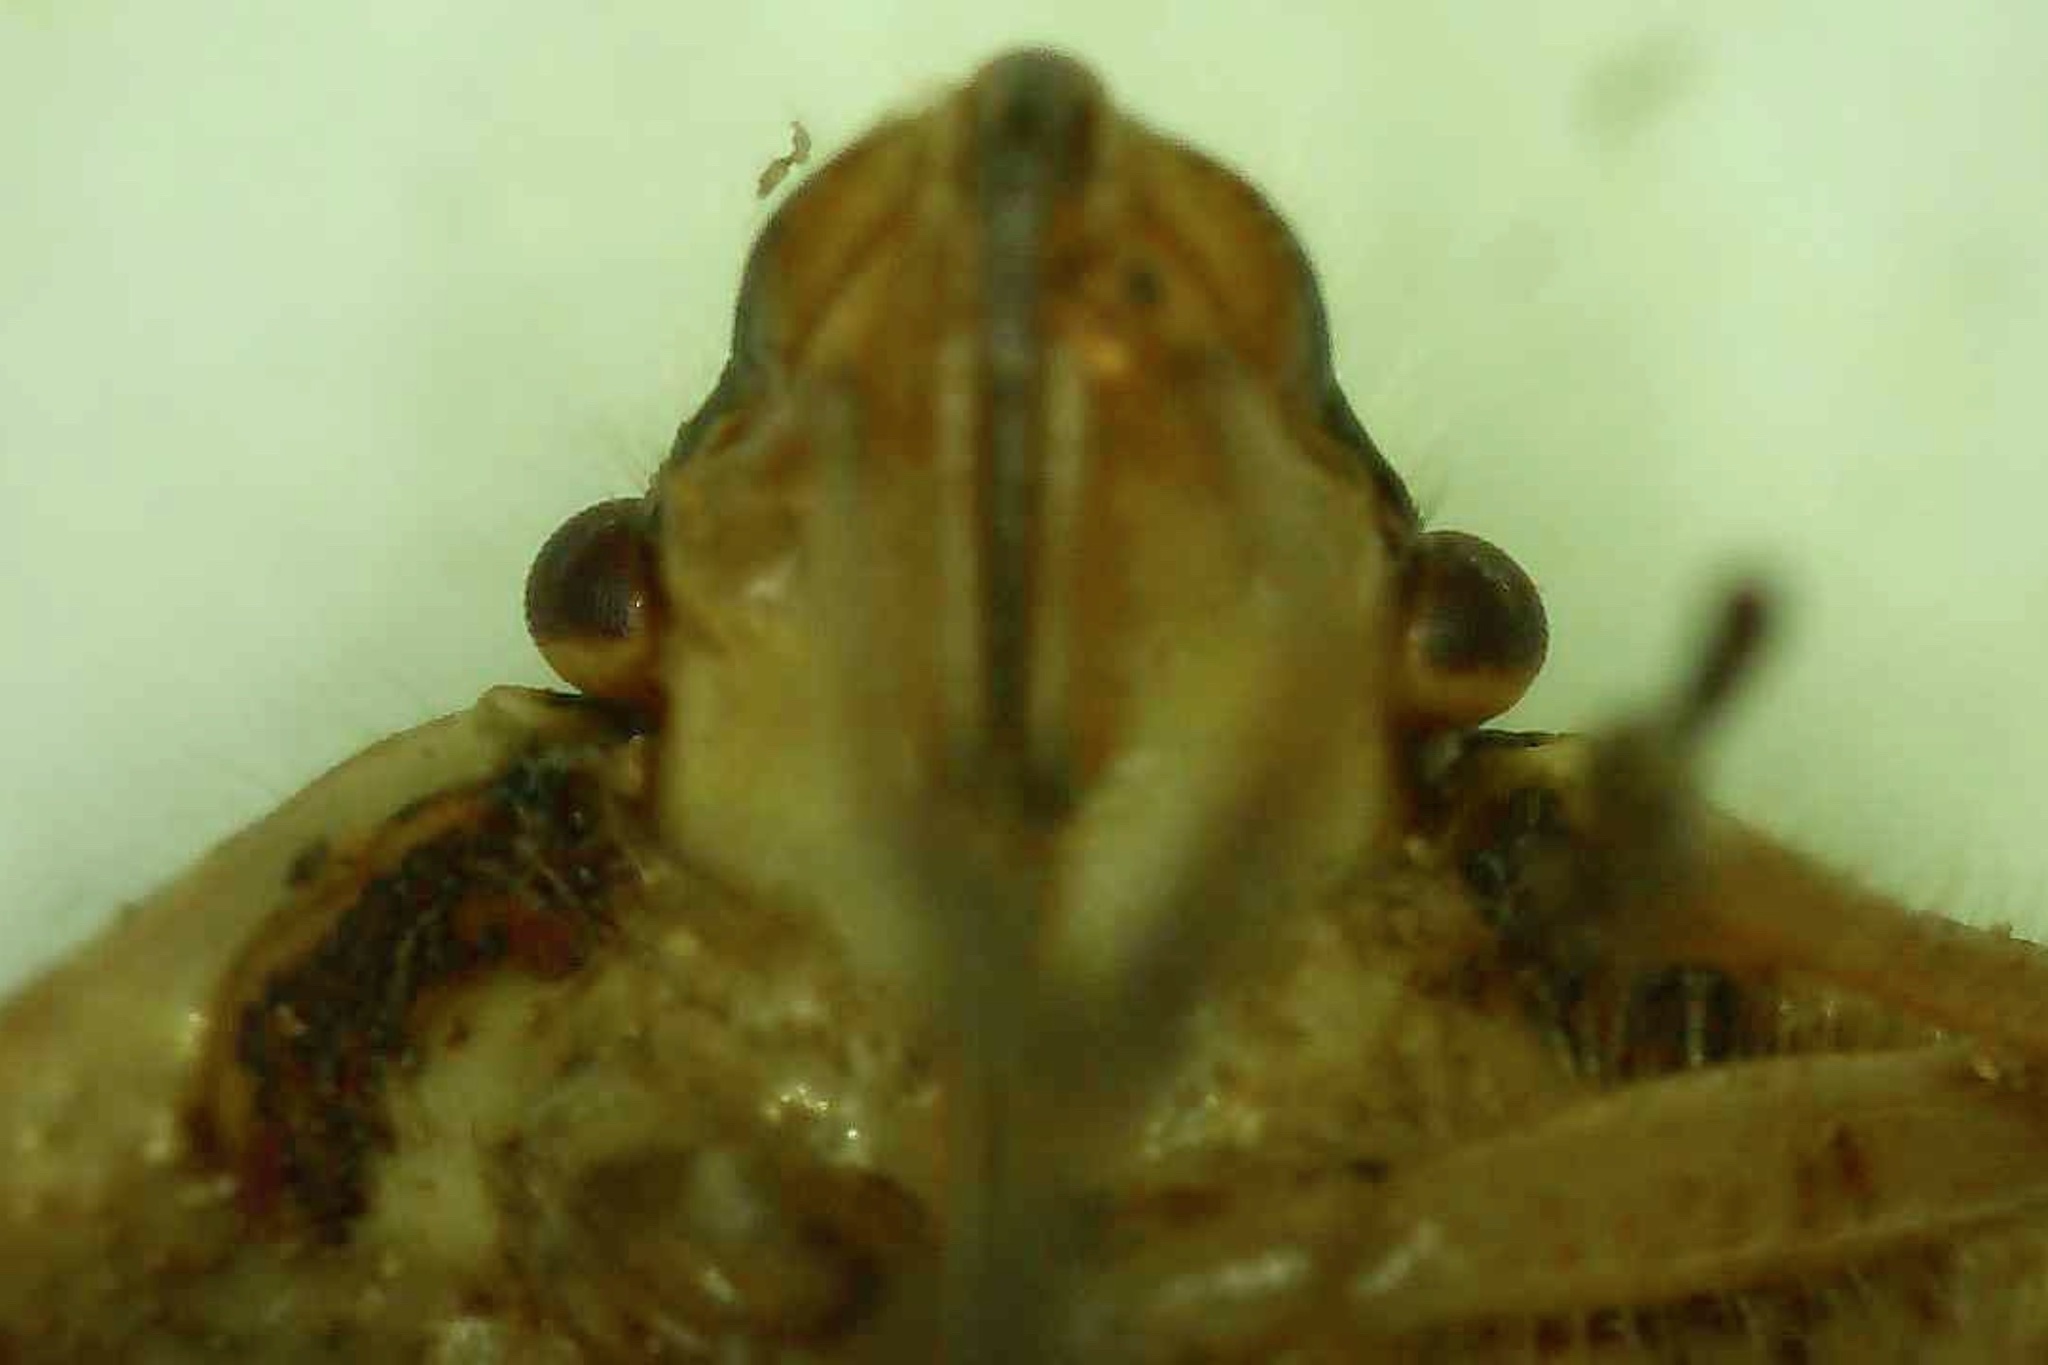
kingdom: Animalia
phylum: Arthropoda
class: Insecta
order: Hemiptera
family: Pentatomidae
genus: Trichopepla
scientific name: Trichopepla semivittata
